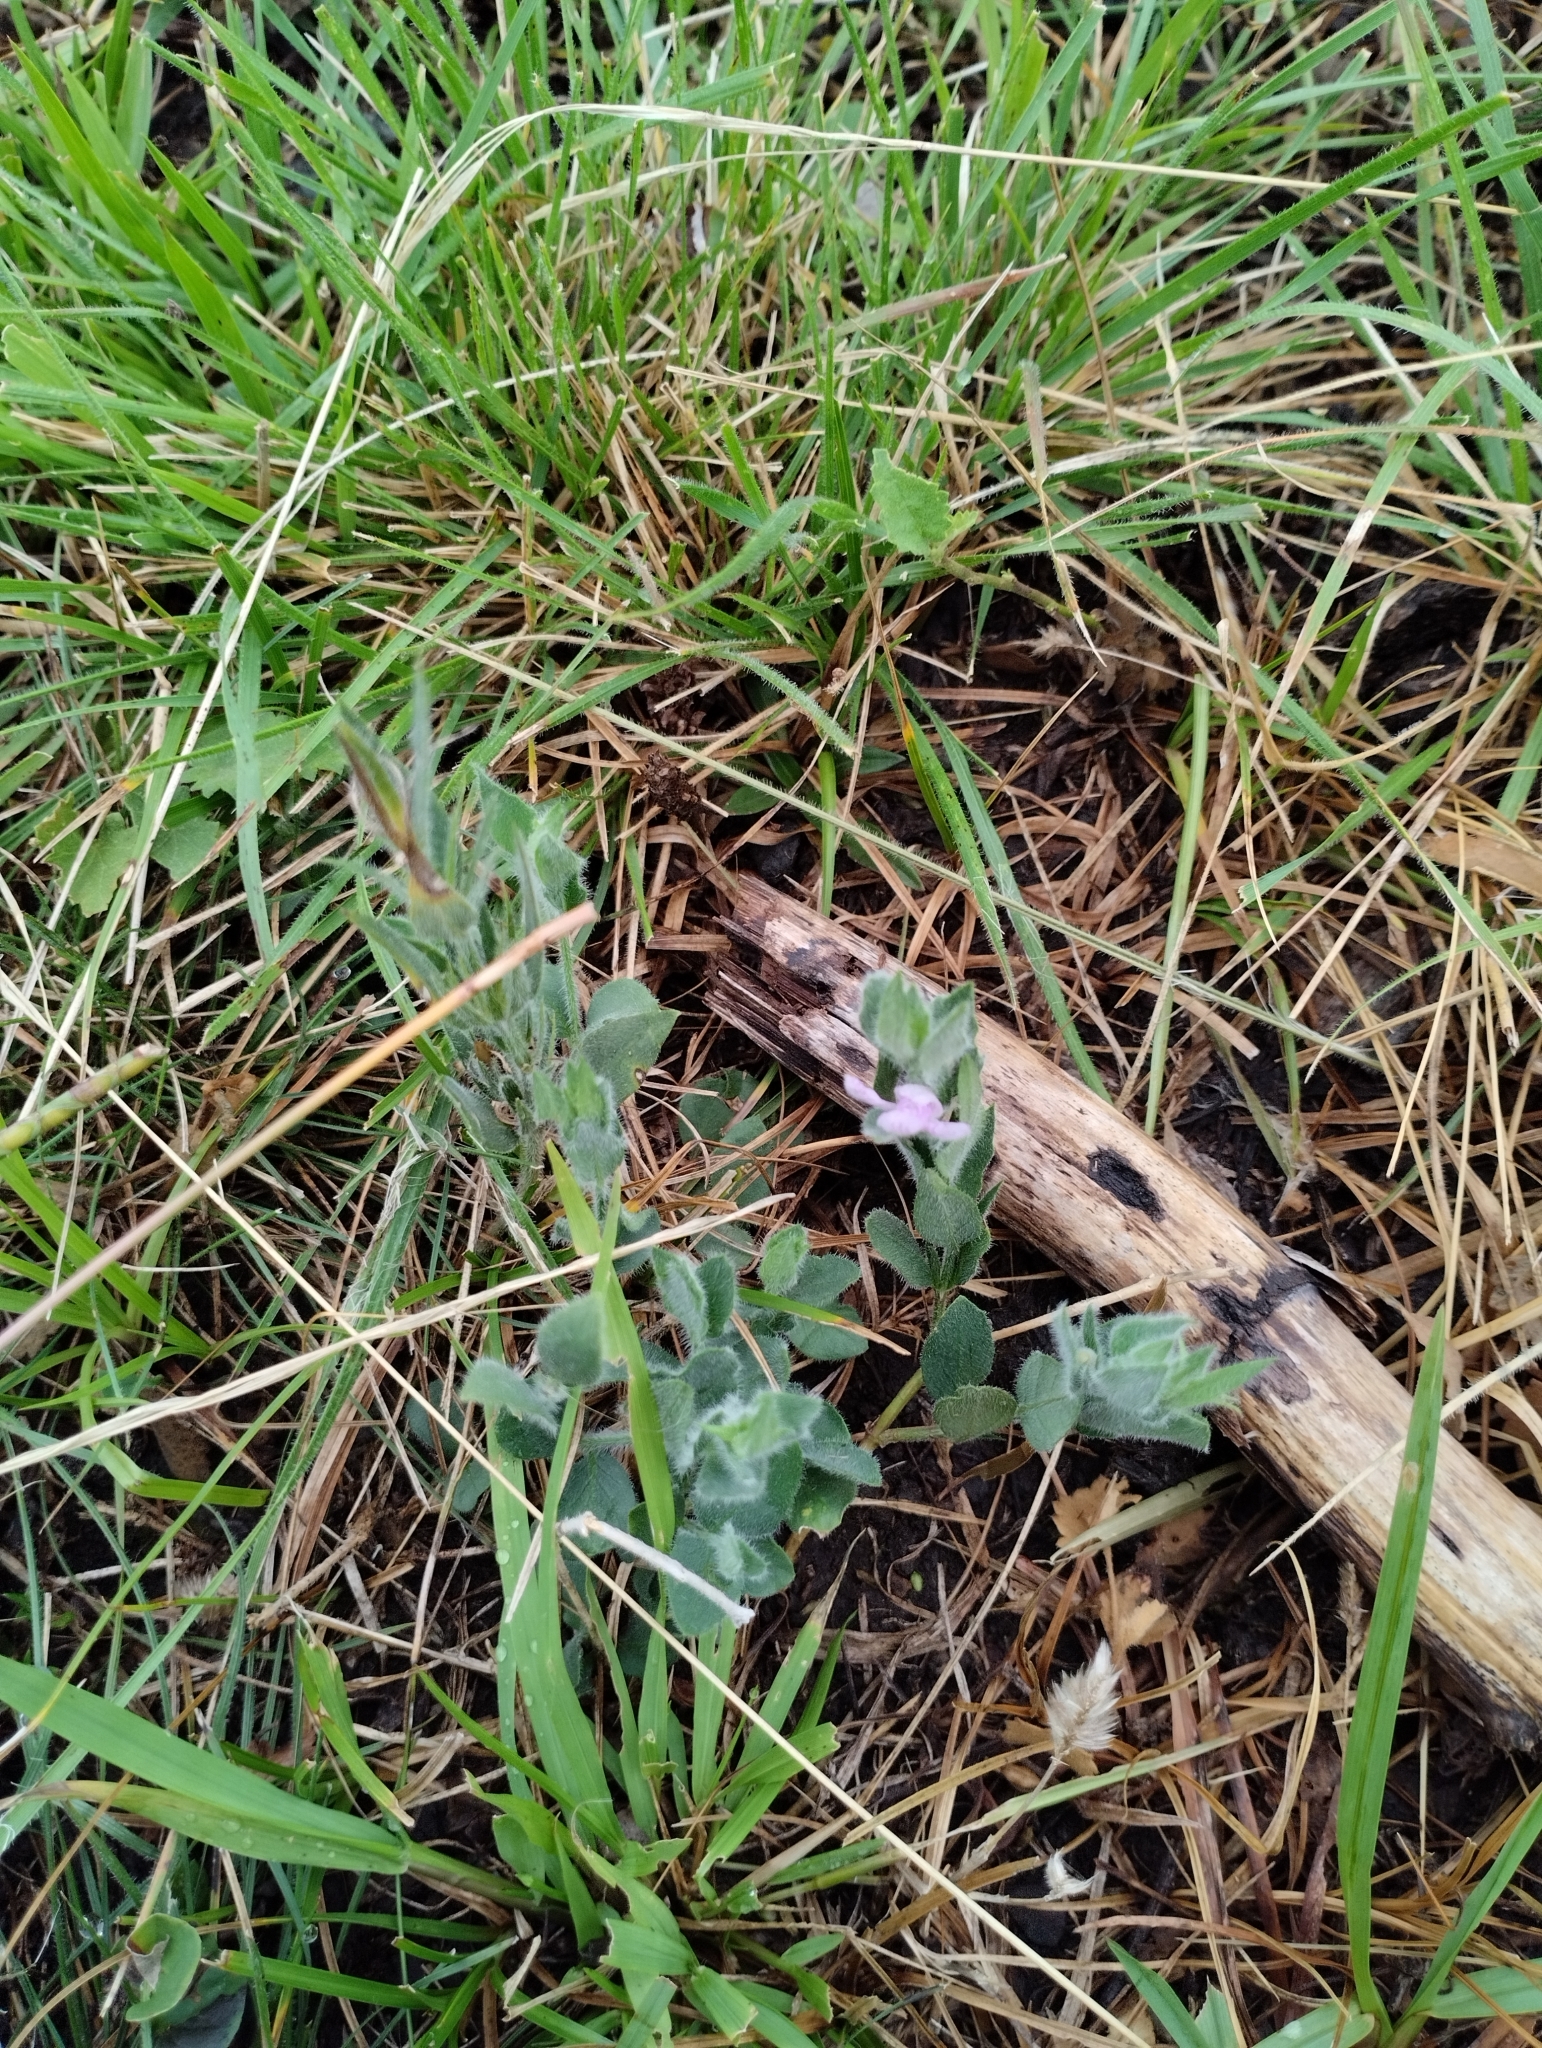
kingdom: Plantae
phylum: Tracheophyta
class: Magnoliopsida
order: Lamiales
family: Acanthaceae
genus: Justicia
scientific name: Justicia axillaris
